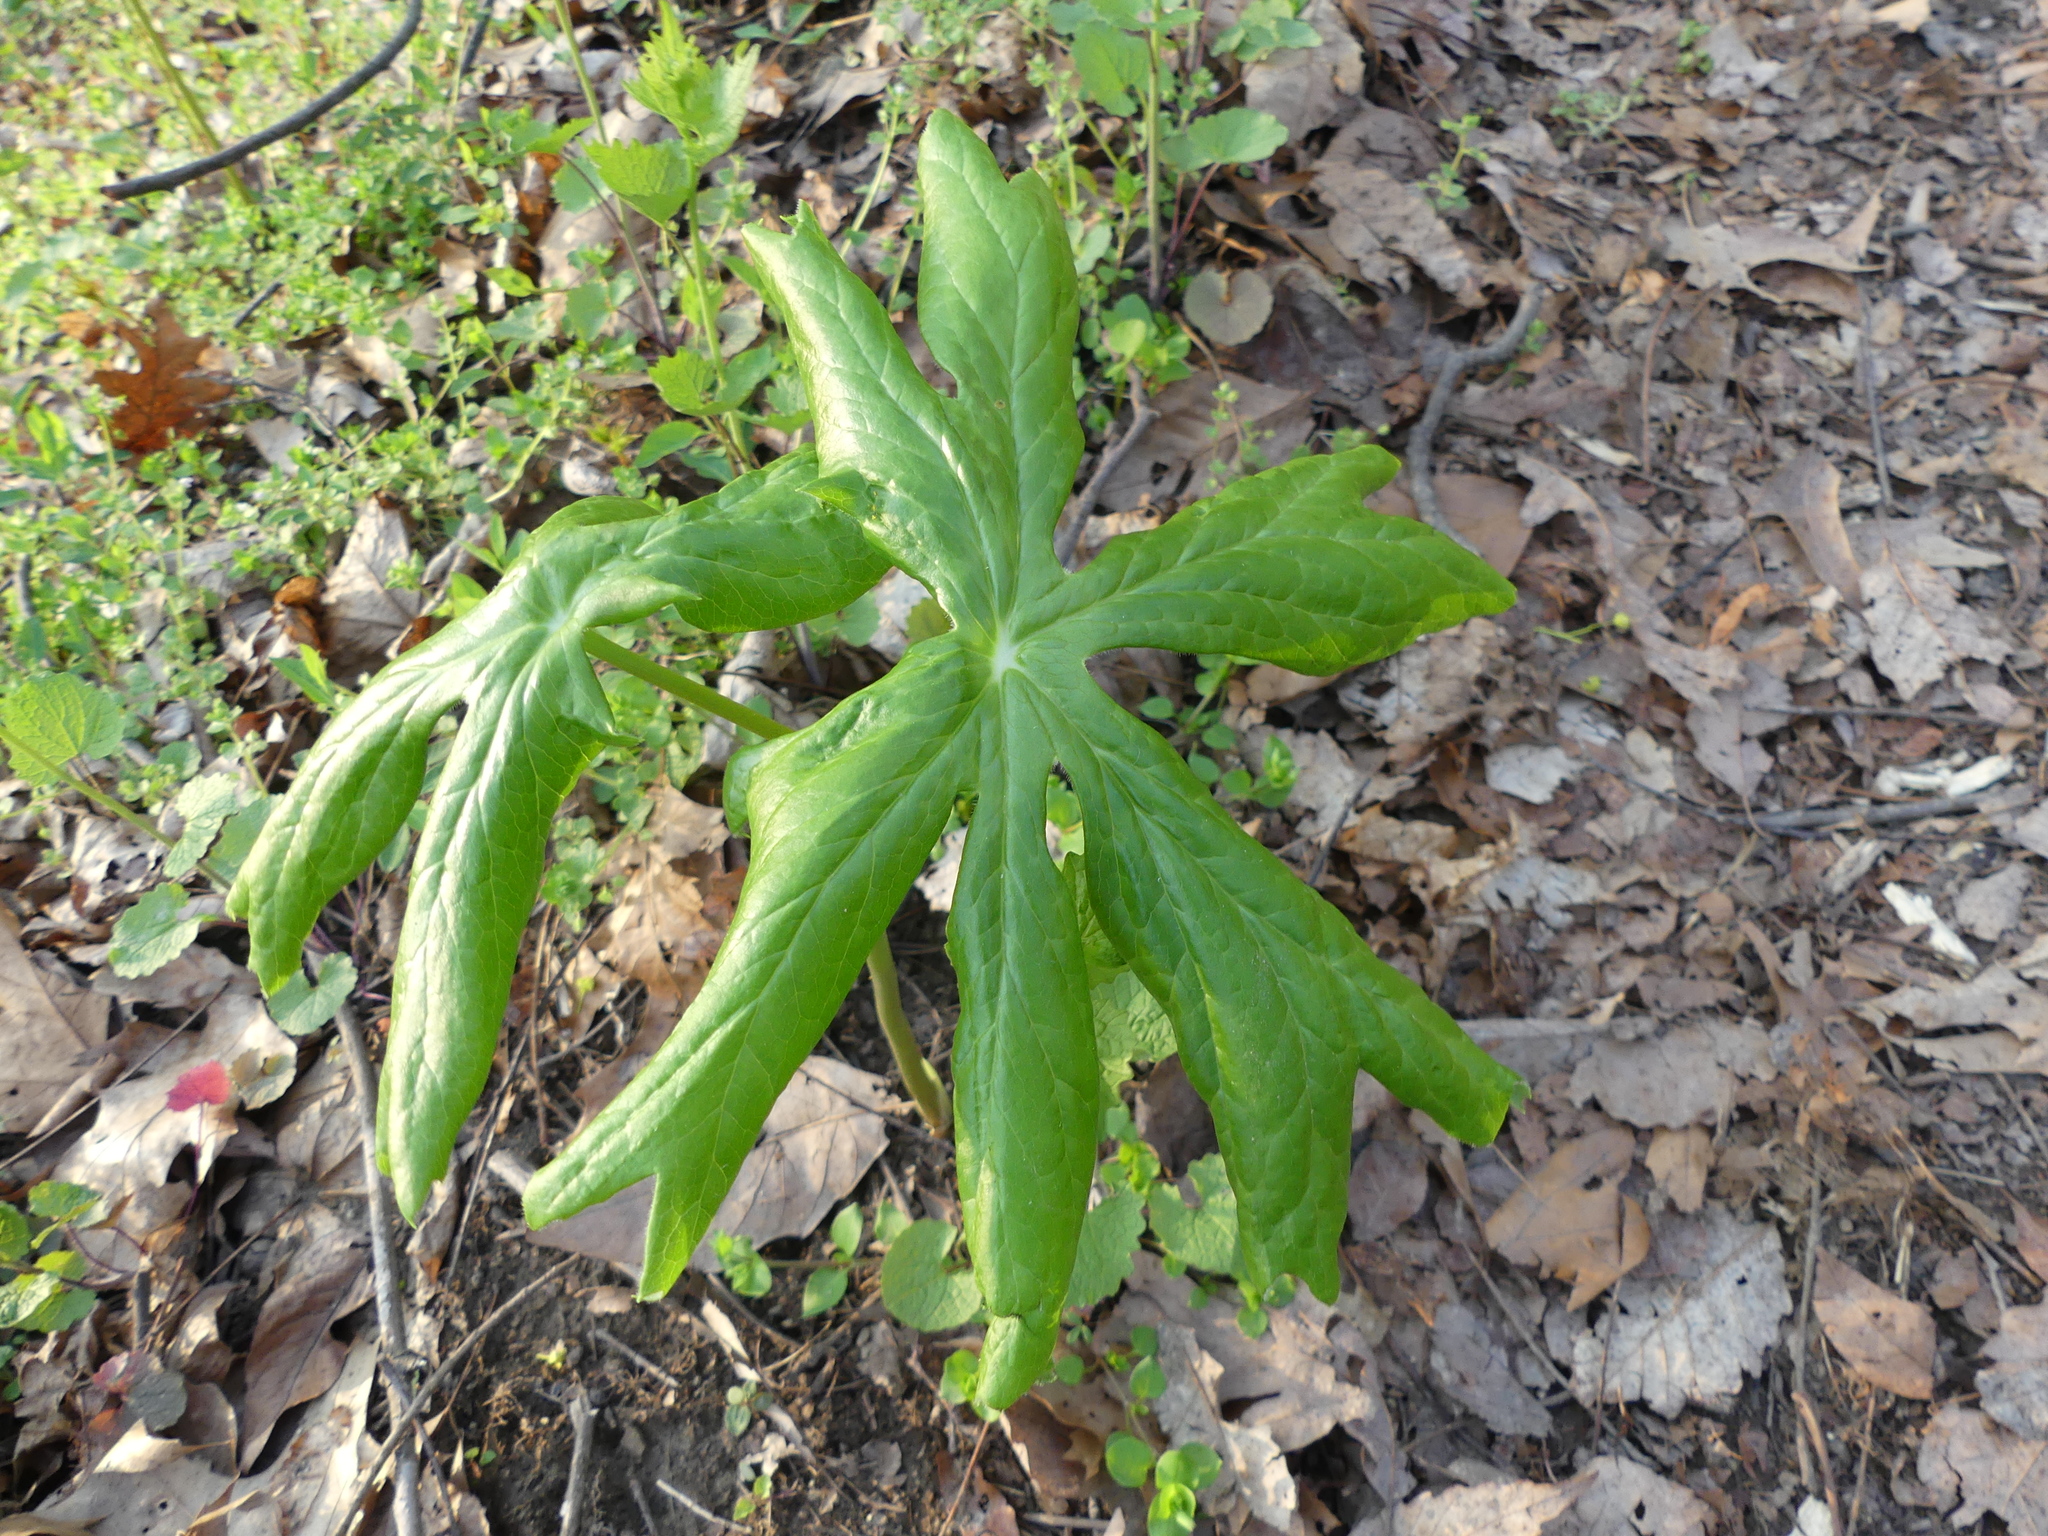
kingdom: Plantae
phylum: Tracheophyta
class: Magnoliopsida
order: Ranunculales
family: Berberidaceae
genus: Podophyllum
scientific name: Podophyllum peltatum
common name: Wild mandrake
